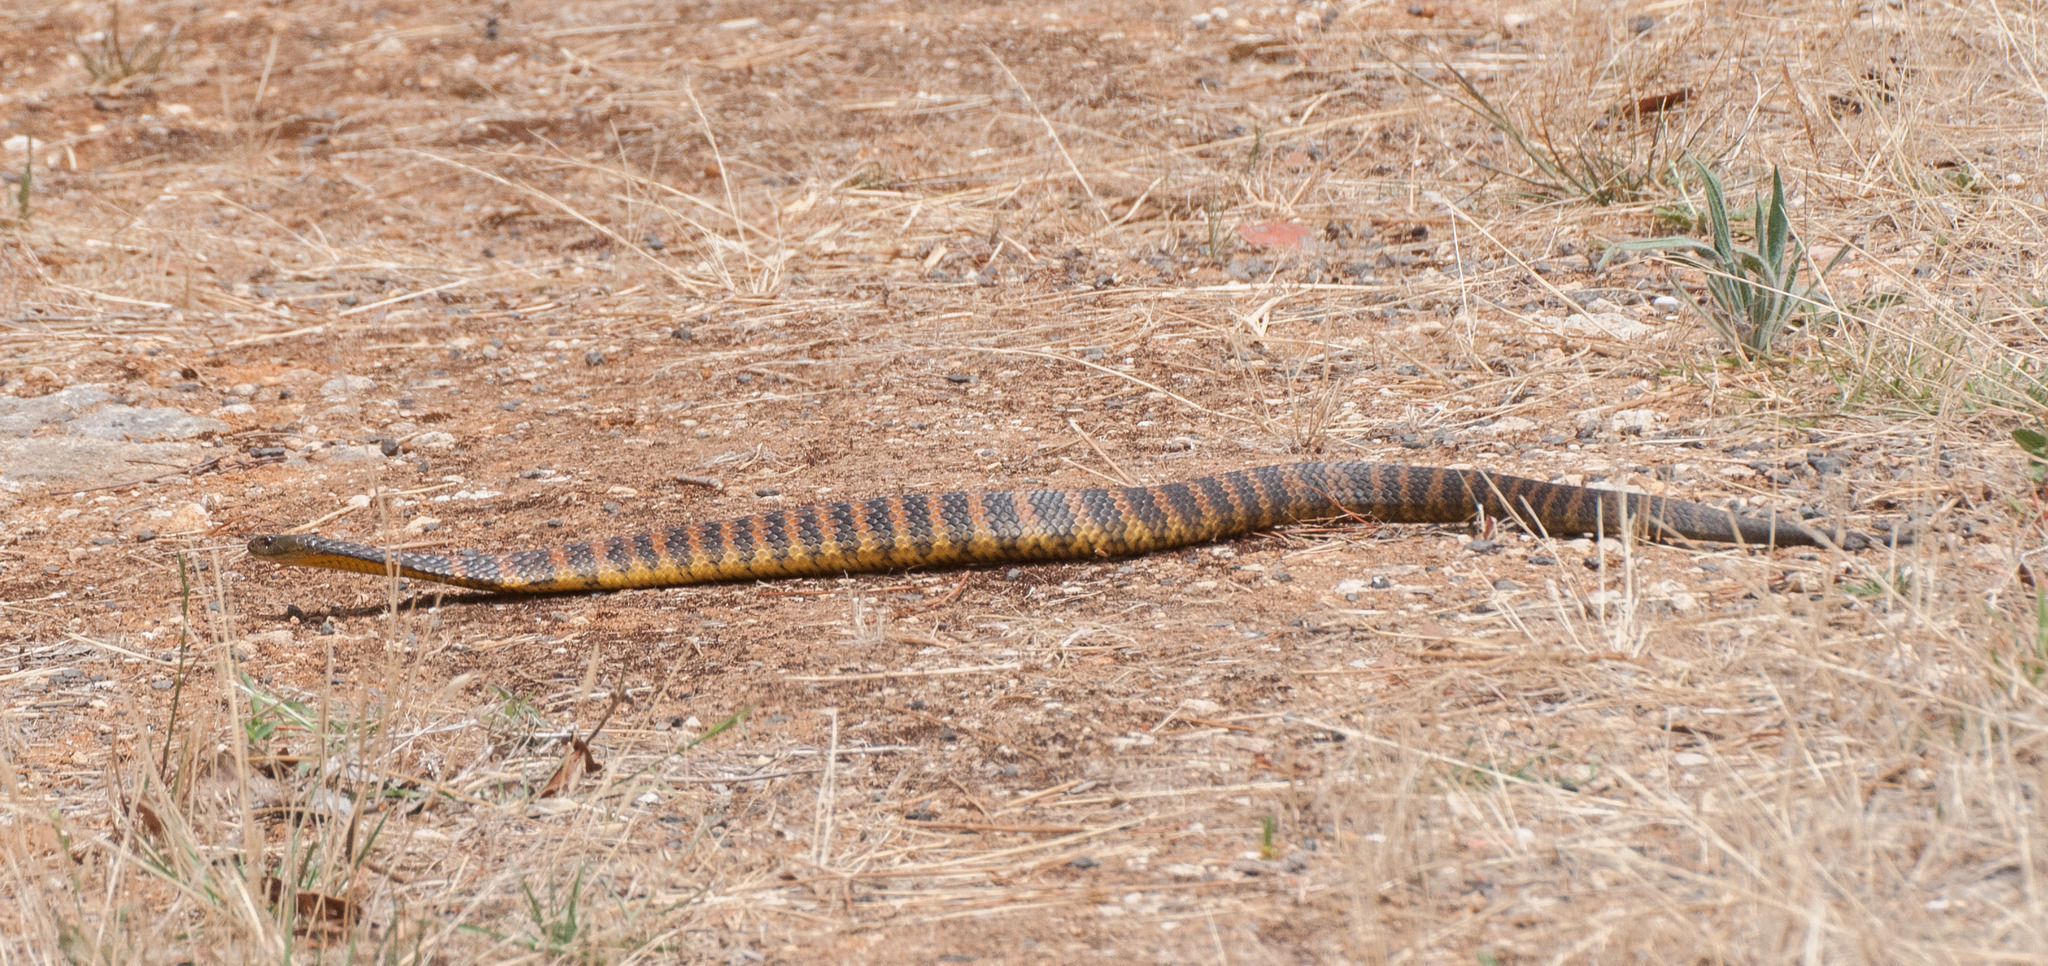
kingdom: Animalia
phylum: Chordata
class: Squamata
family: Elapidae
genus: Notechis
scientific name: Notechis scutatus
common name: Mainland tiger snake
